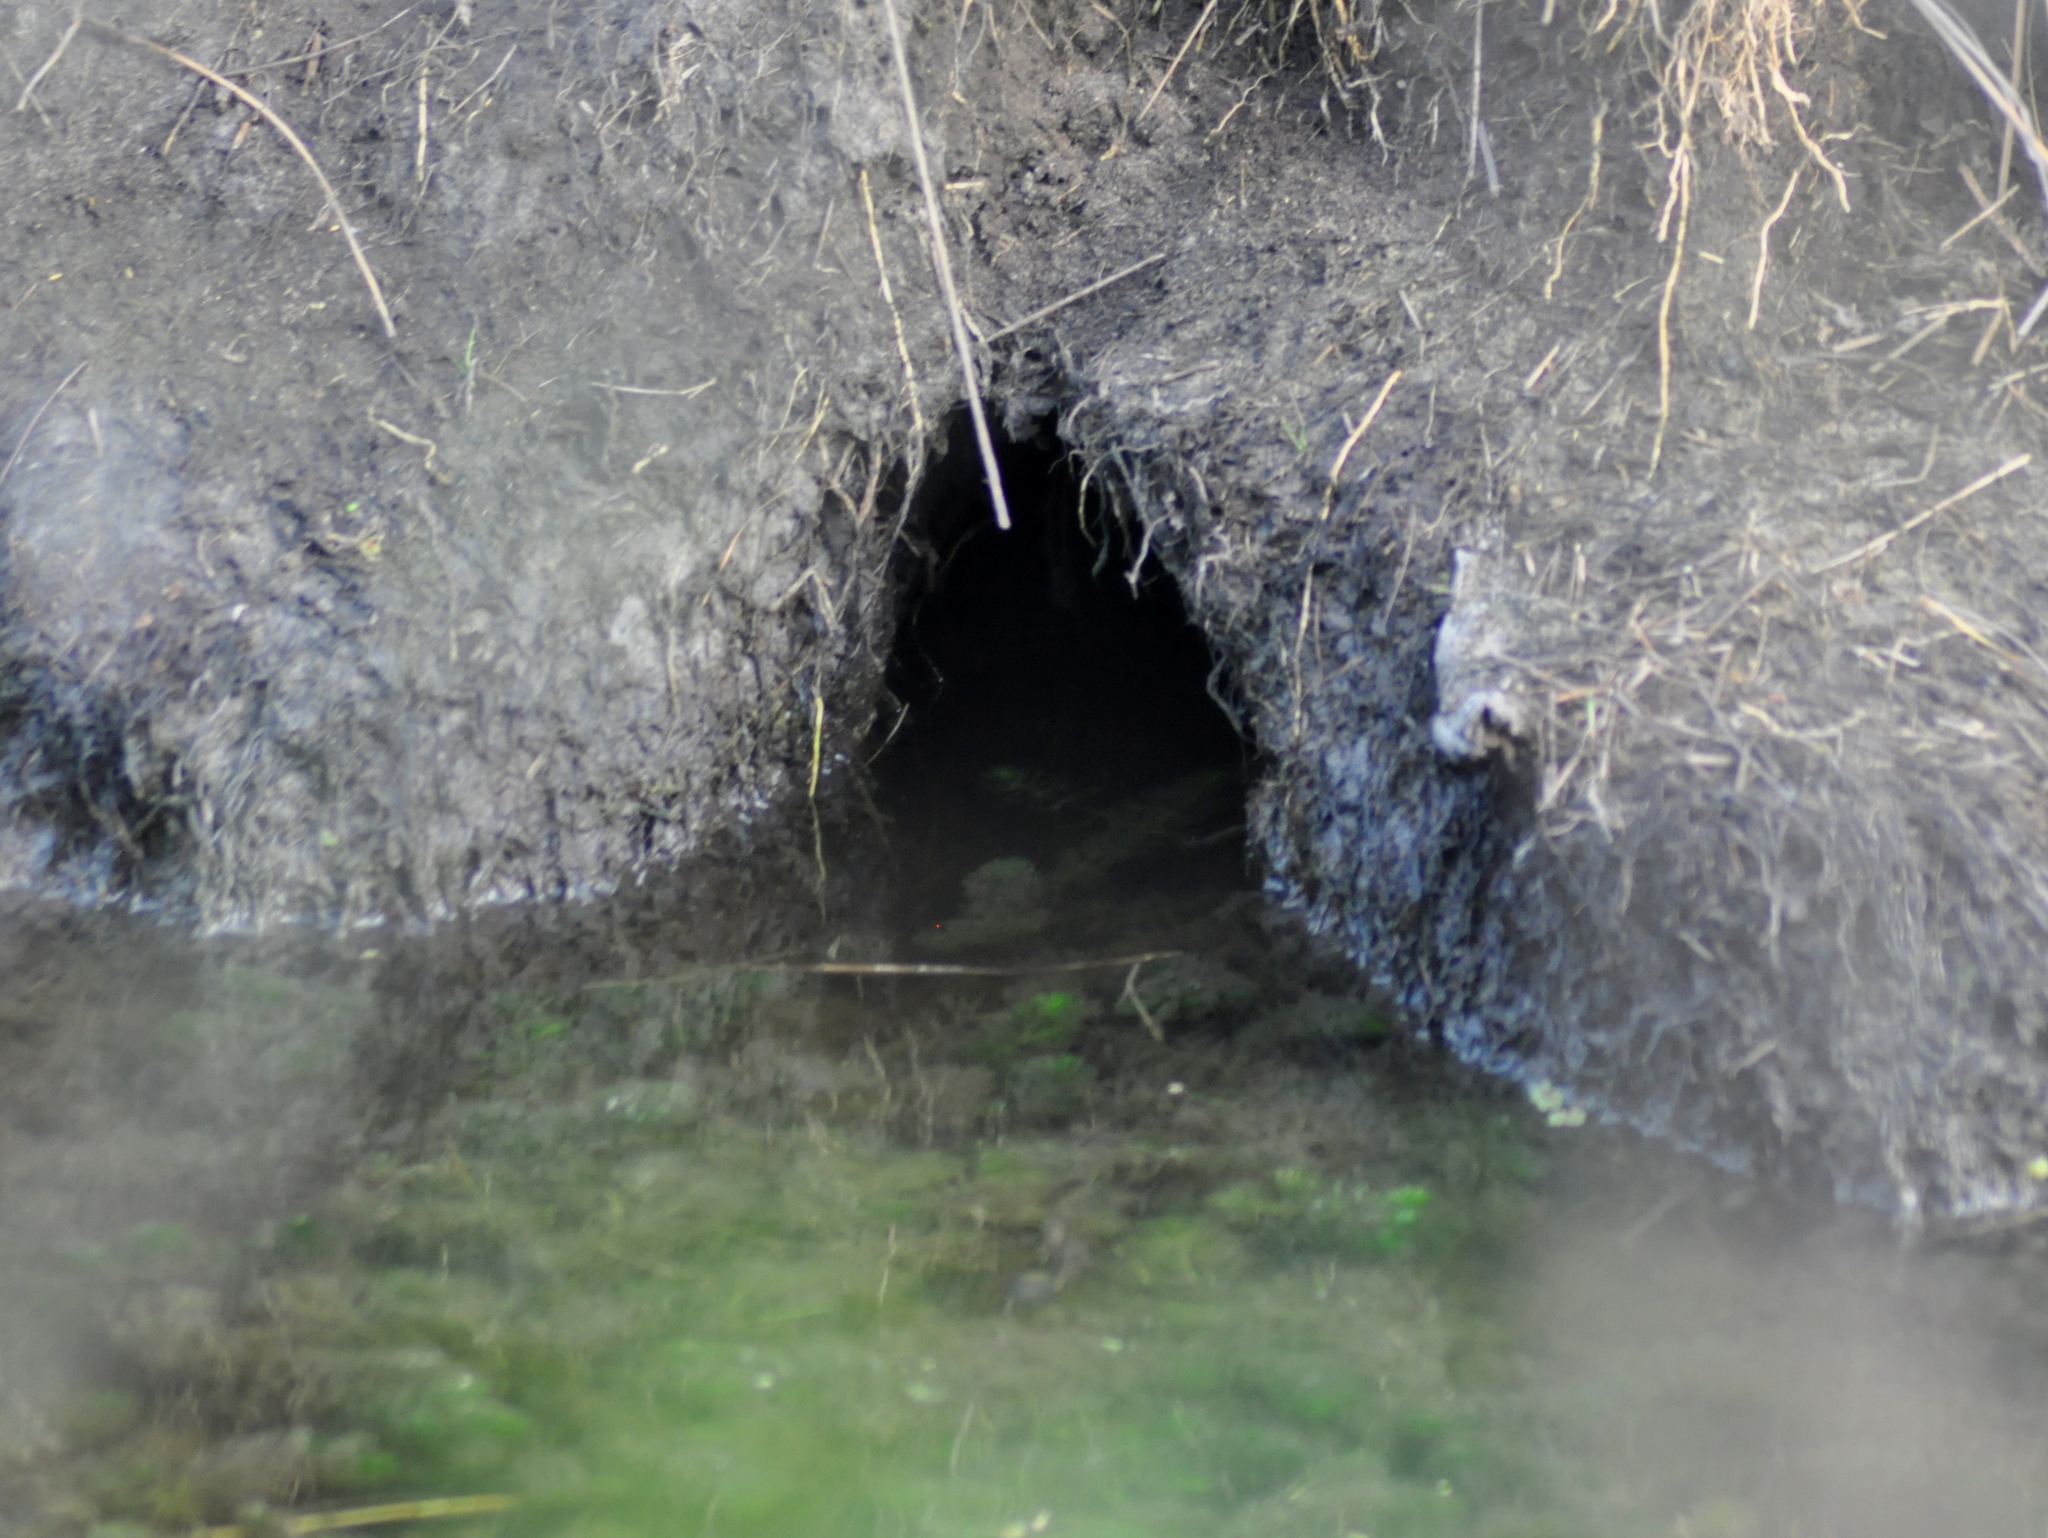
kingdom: Animalia
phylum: Chordata
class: Mammalia
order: Rodentia
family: Myocastoridae
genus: Myocastor
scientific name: Myocastor coypus
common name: Coypu
